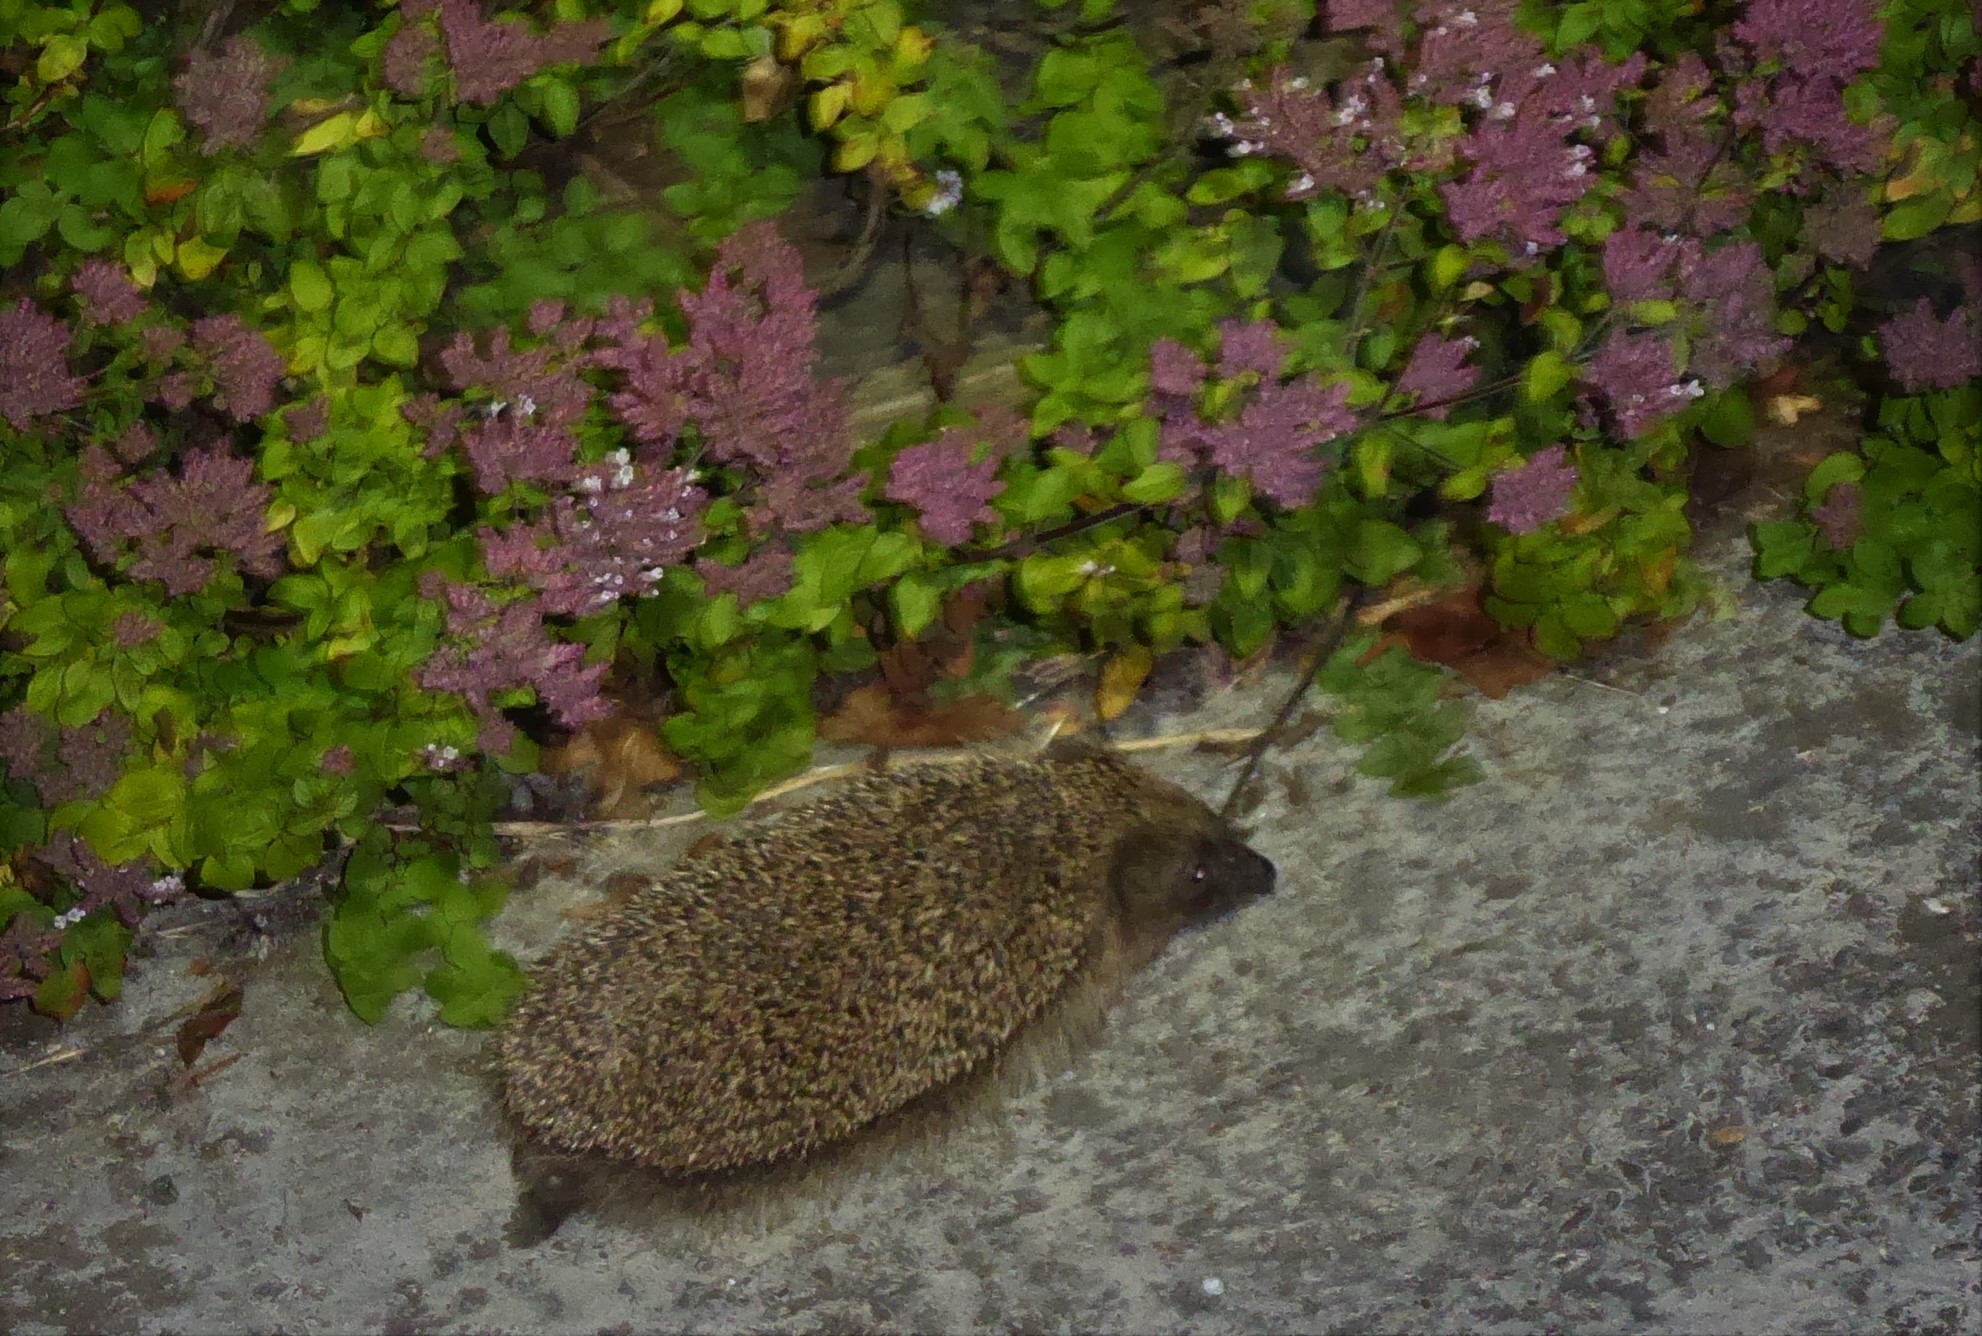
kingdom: Animalia
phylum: Chordata
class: Mammalia
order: Erinaceomorpha
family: Erinaceidae
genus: Erinaceus
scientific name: Erinaceus europaeus
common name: West european hedgehog
